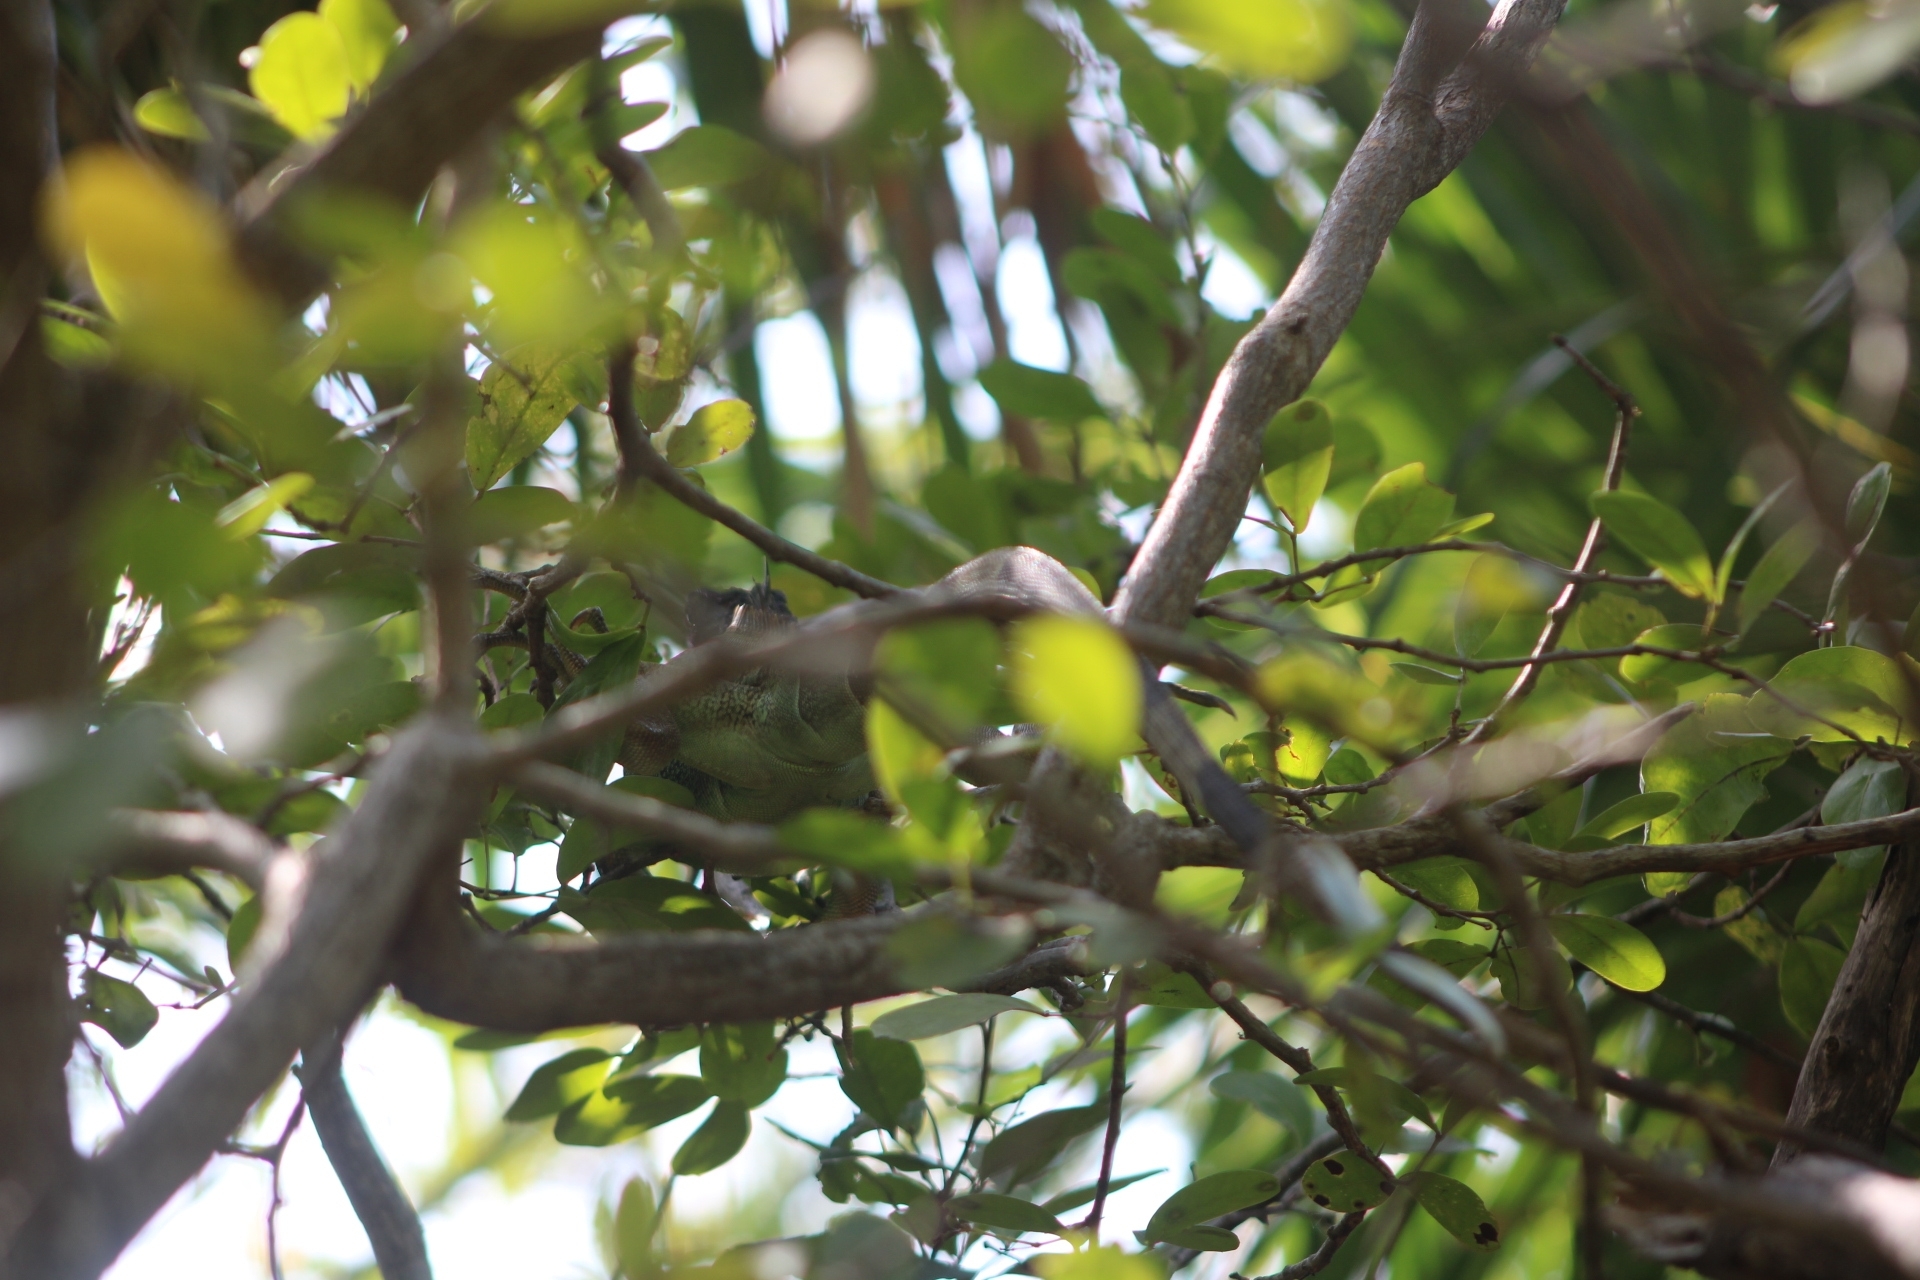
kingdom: Animalia
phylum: Chordata
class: Squamata
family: Iguanidae
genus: Iguana
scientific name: Iguana iguana
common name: Green iguana
